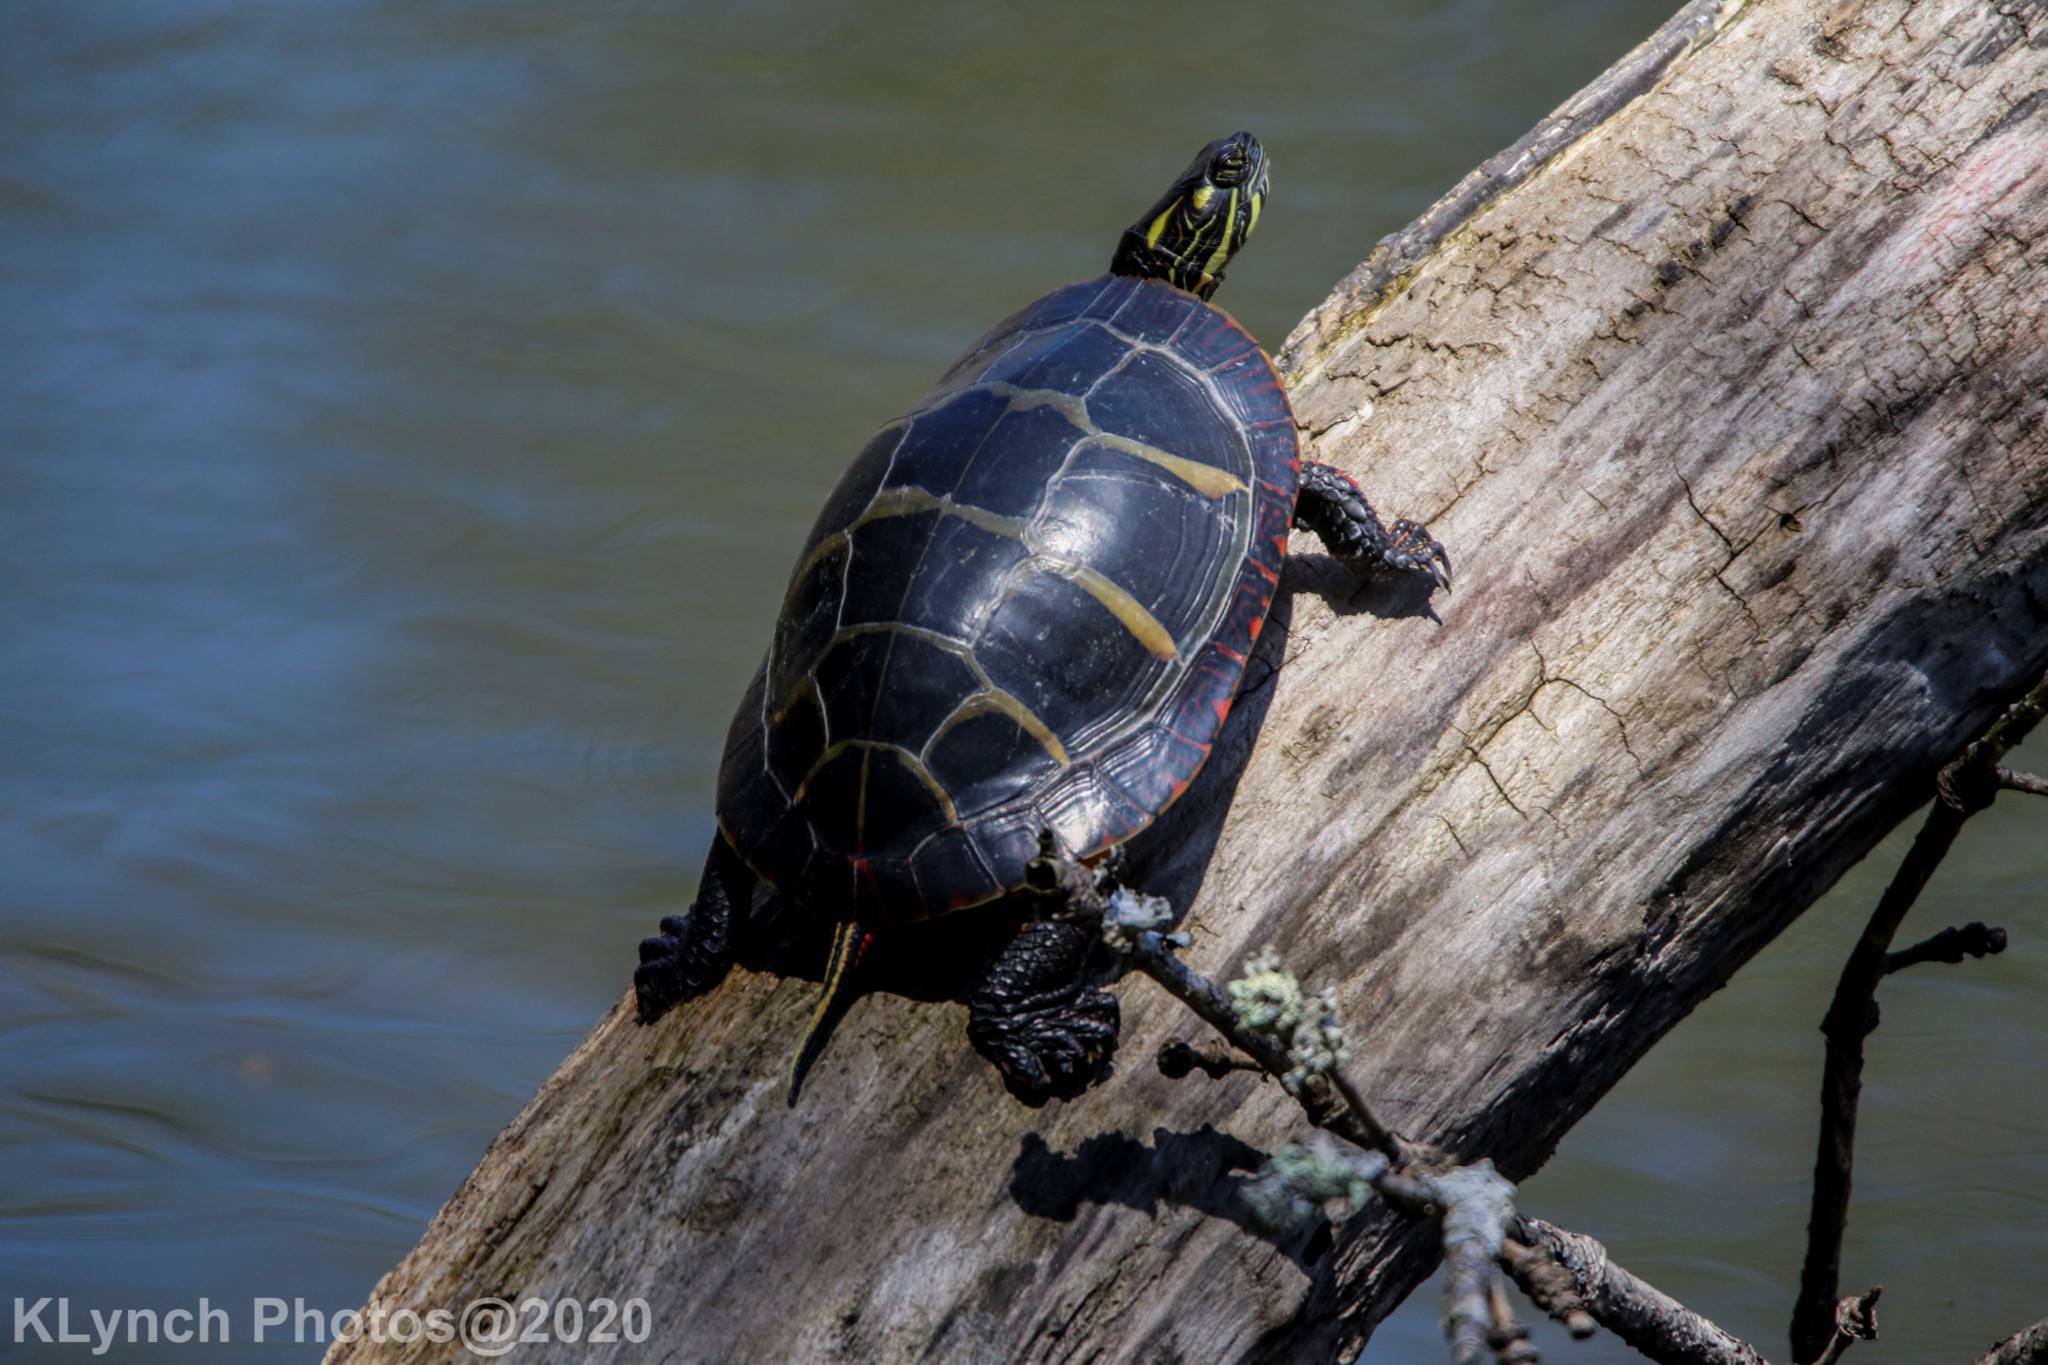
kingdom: Animalia
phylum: Chordata
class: Testudines
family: Emydidae
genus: Chrysemys
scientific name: Chrysemys picta
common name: Painted turtle
